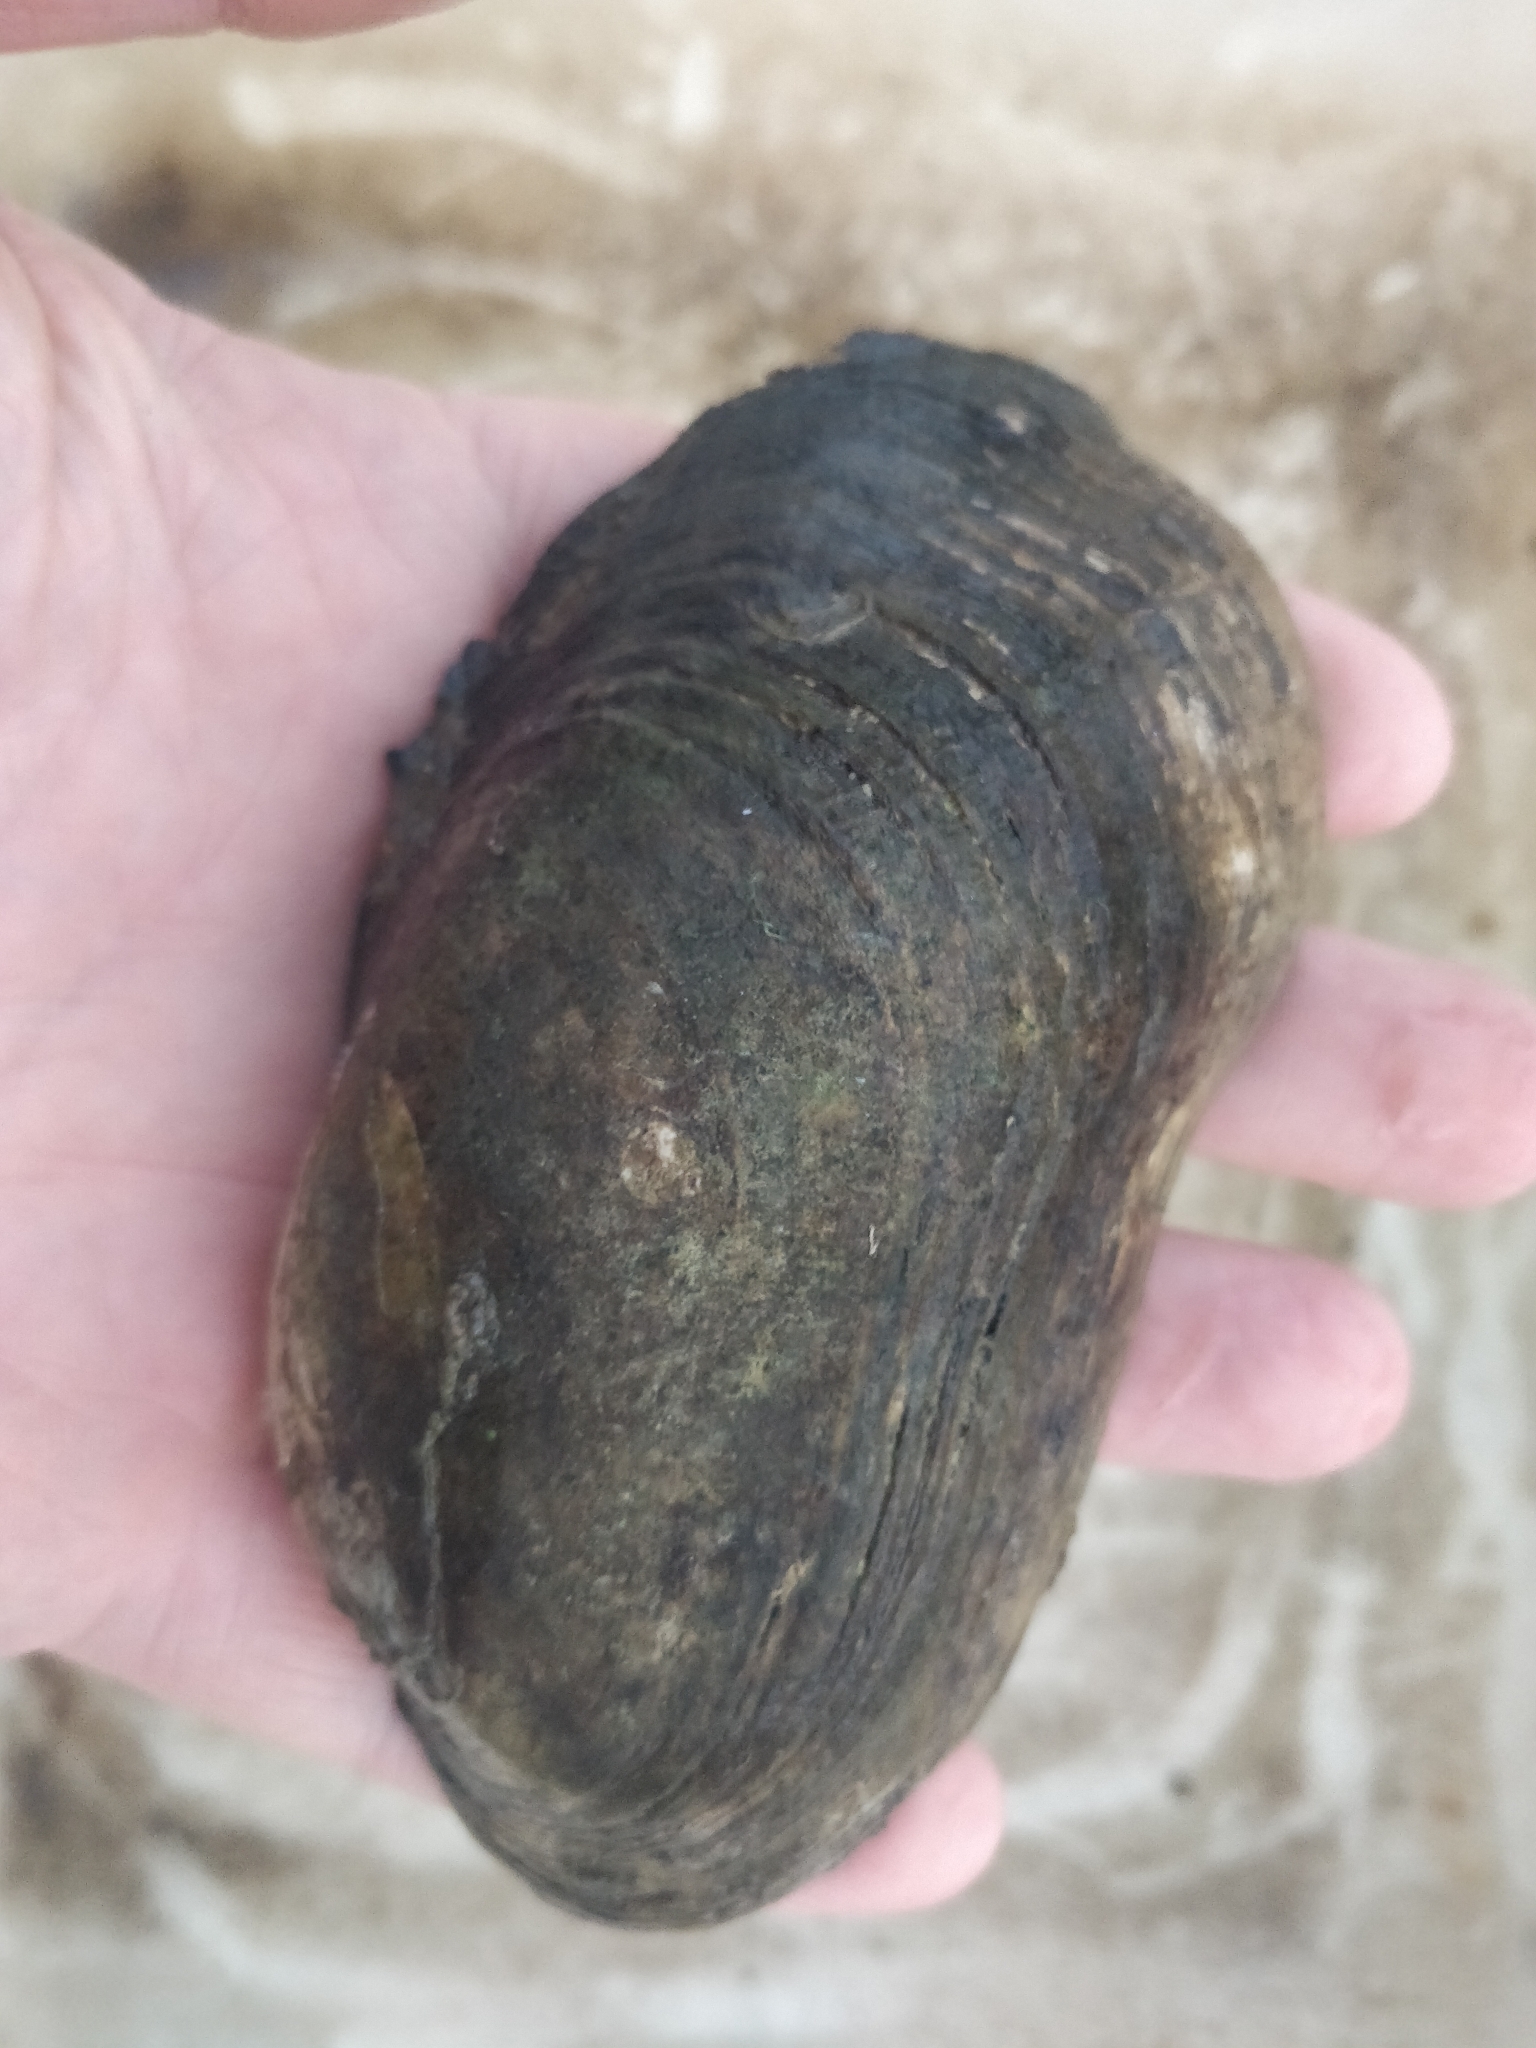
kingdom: Animalia
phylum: Mollusca
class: Bivalvia
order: Unionida
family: Unionidae
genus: Lampsilis
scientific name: Lampsilis siliquoidea
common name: Fatmucket
